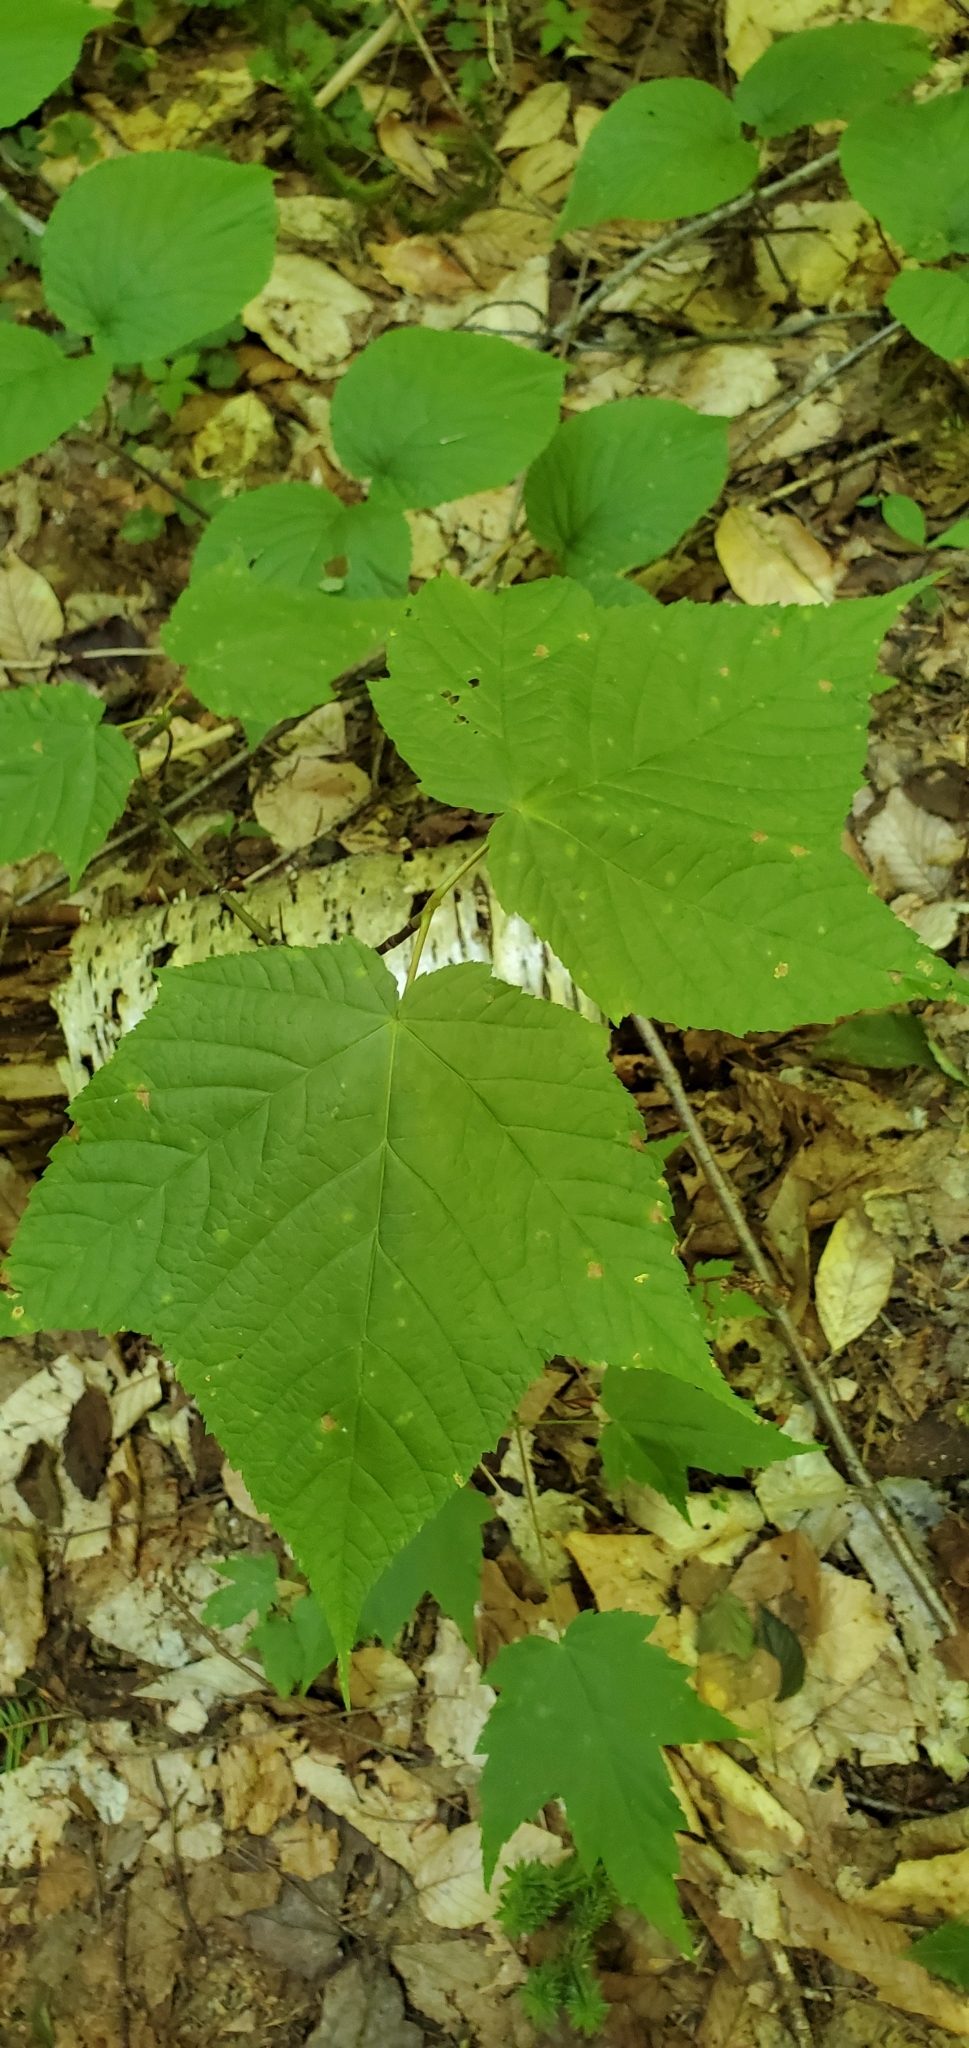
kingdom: Plantae
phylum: Tracheophyta
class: Magnoliopsida
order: Sapindales
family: Sapindaceae
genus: Acer
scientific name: Acer pensylvanicum
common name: Moosewood
